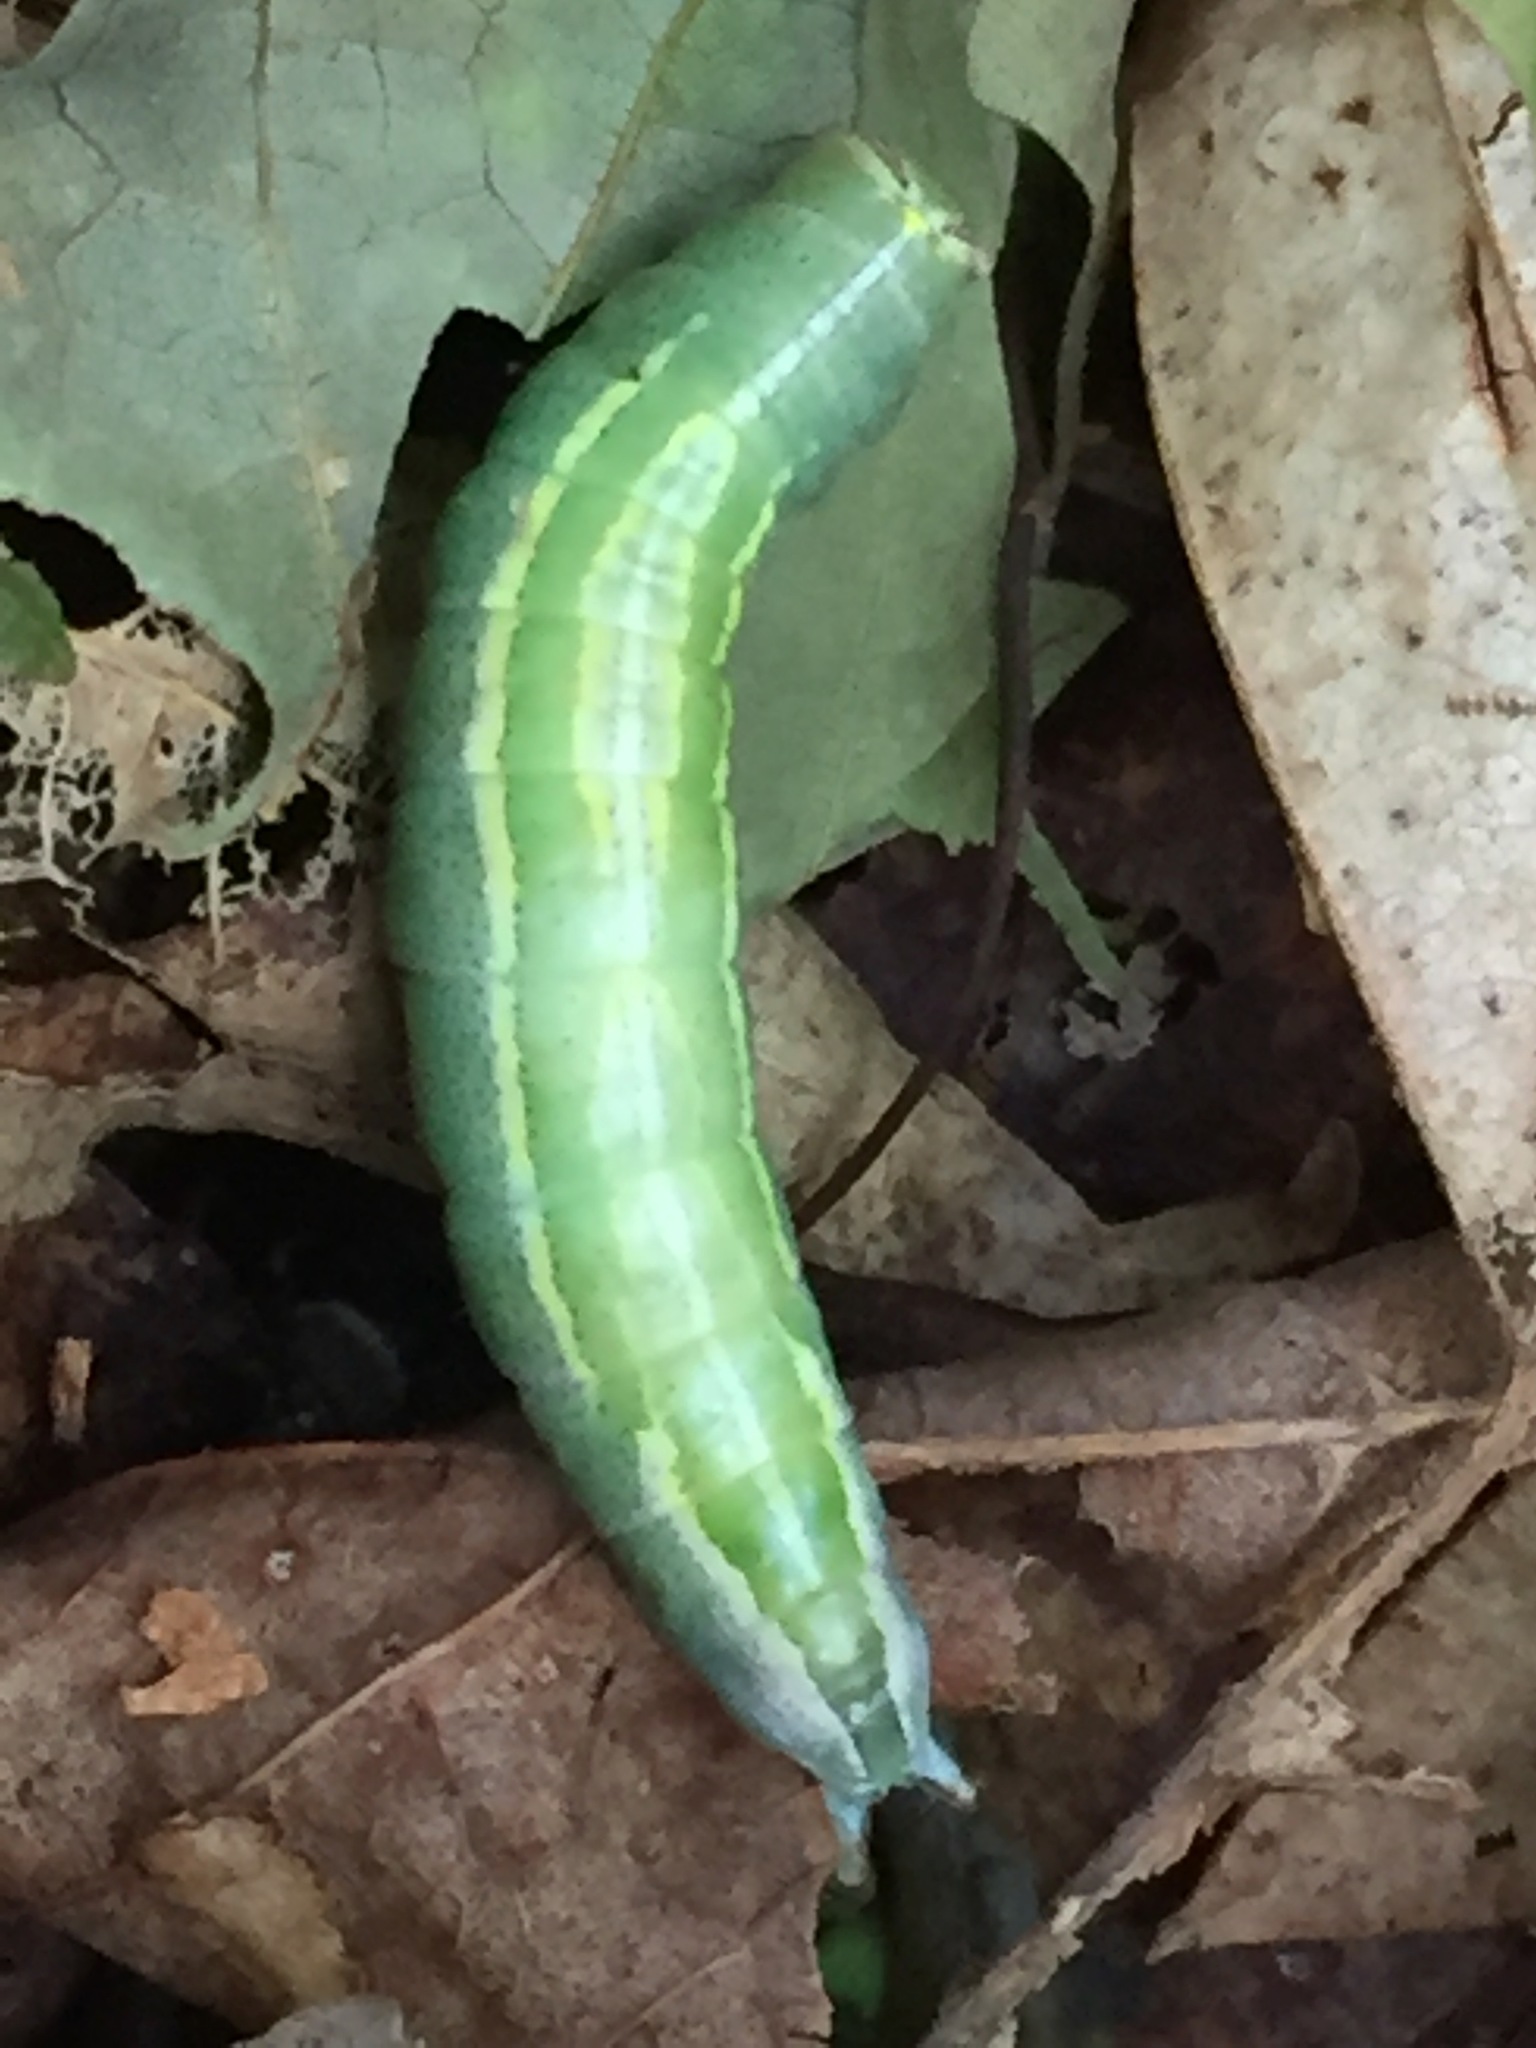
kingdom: Animalia
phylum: Arthropoda
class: Insecta
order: Lepidoptera
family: Notodontidae
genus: Disphragis
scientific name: Disphragis Cecrita guttivitta
